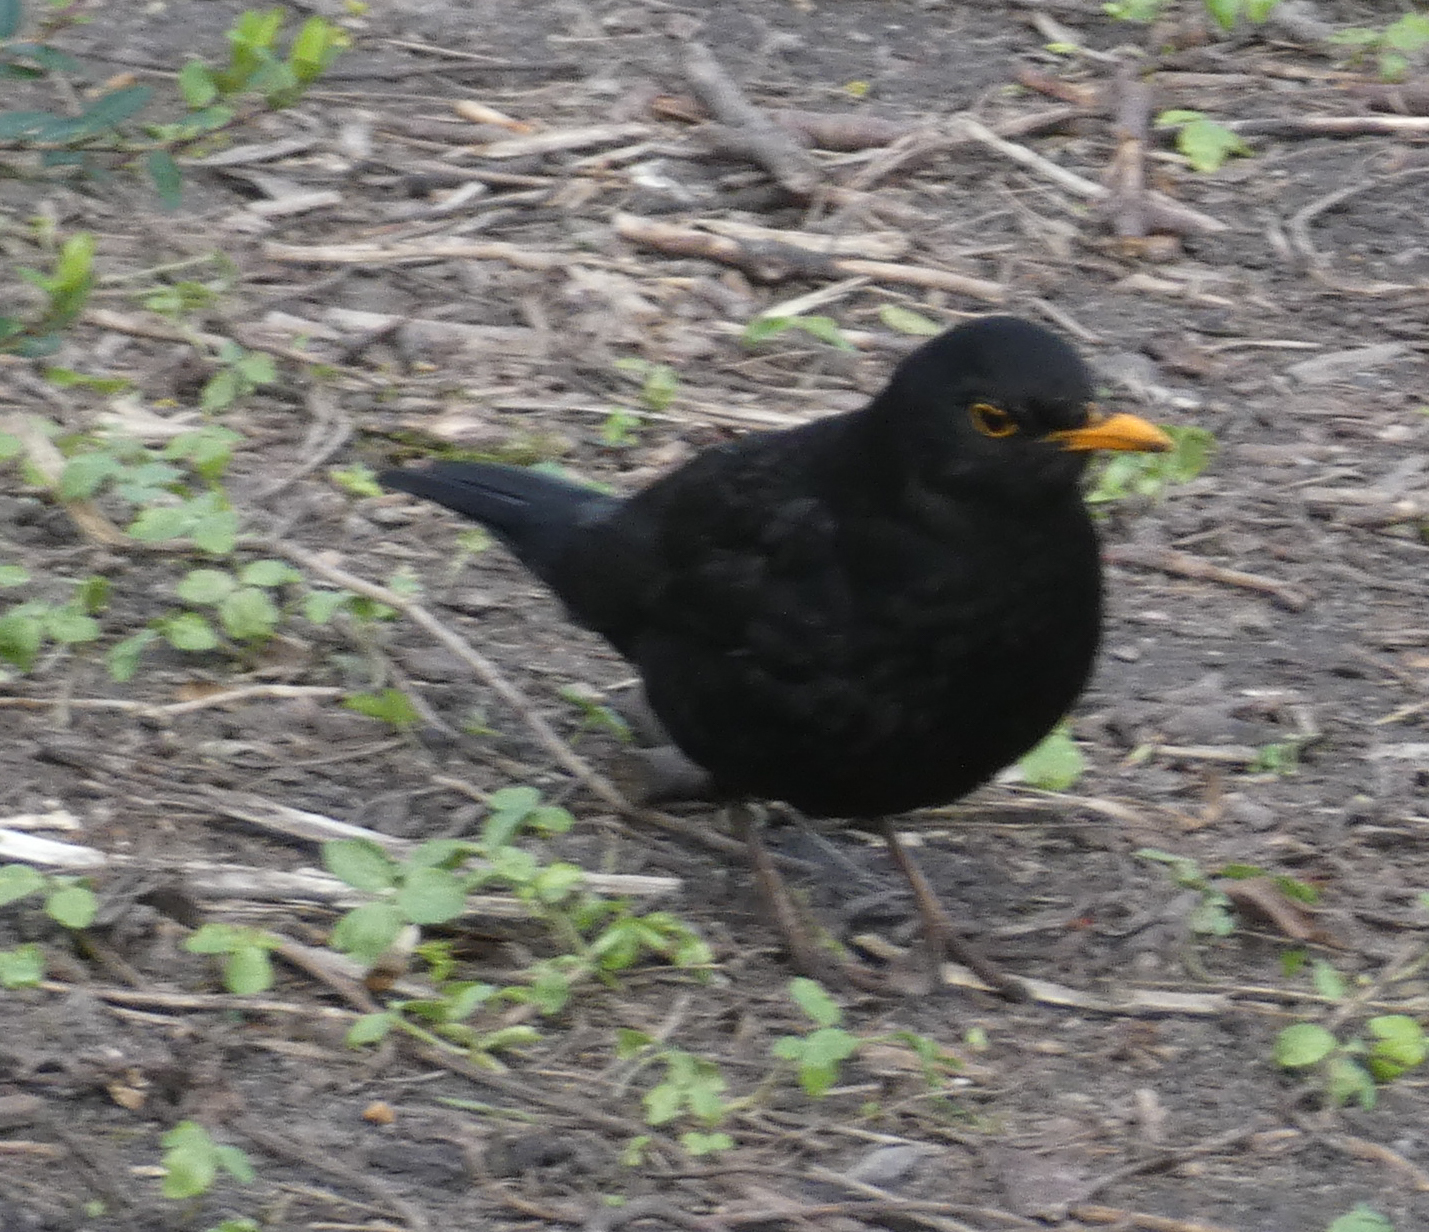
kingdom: Animalia
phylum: Chordata
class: Aves
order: Passeriformes
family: Turdidae
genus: Turdus
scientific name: Turdus merula
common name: Common blackbird
